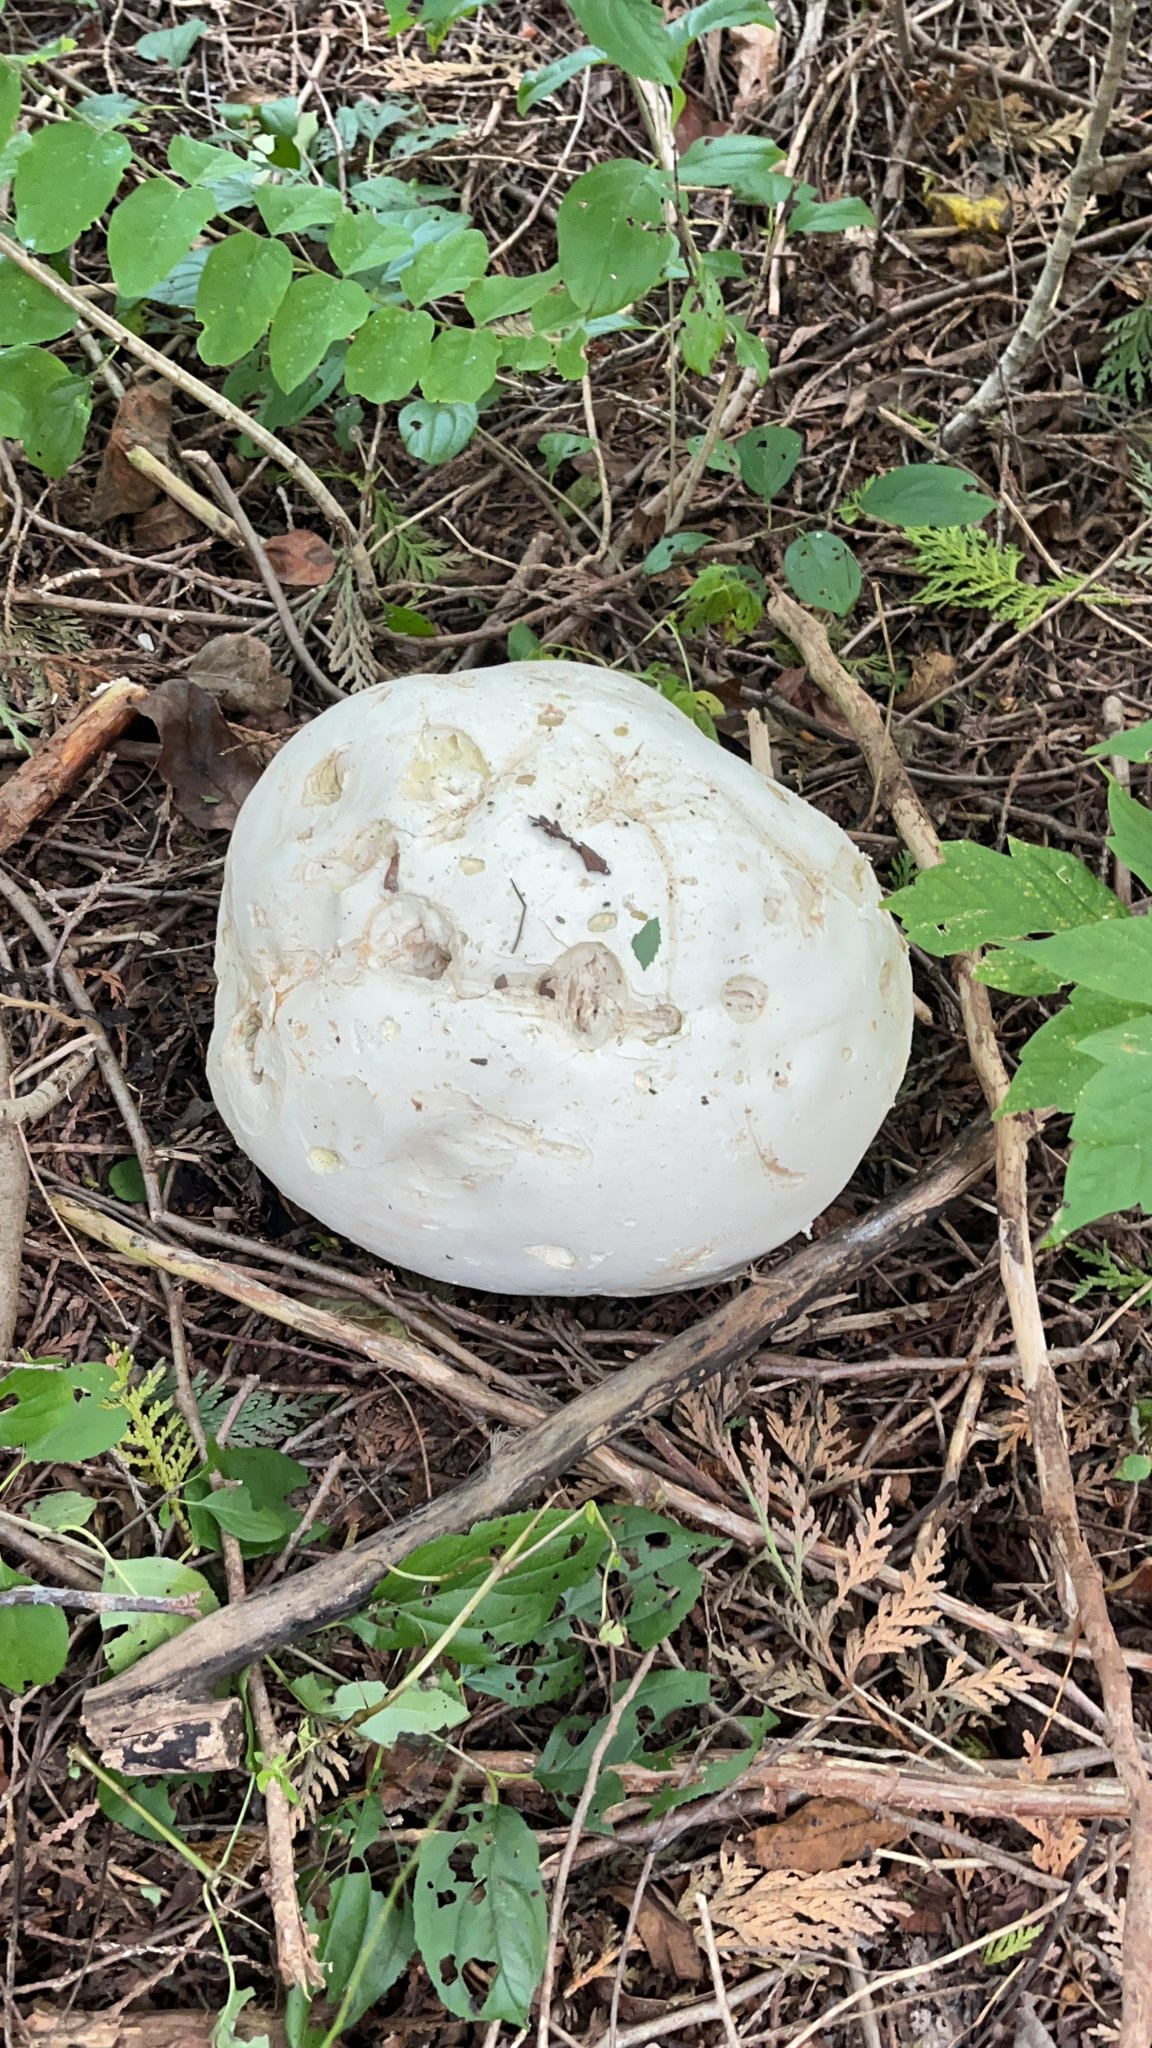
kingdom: Fungi
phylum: Basidiomycota
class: Agaricomycetes
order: Agaricales
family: Lycoperdaceae
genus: Calvatia
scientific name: Calvatia gigantea
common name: Giant puffball
